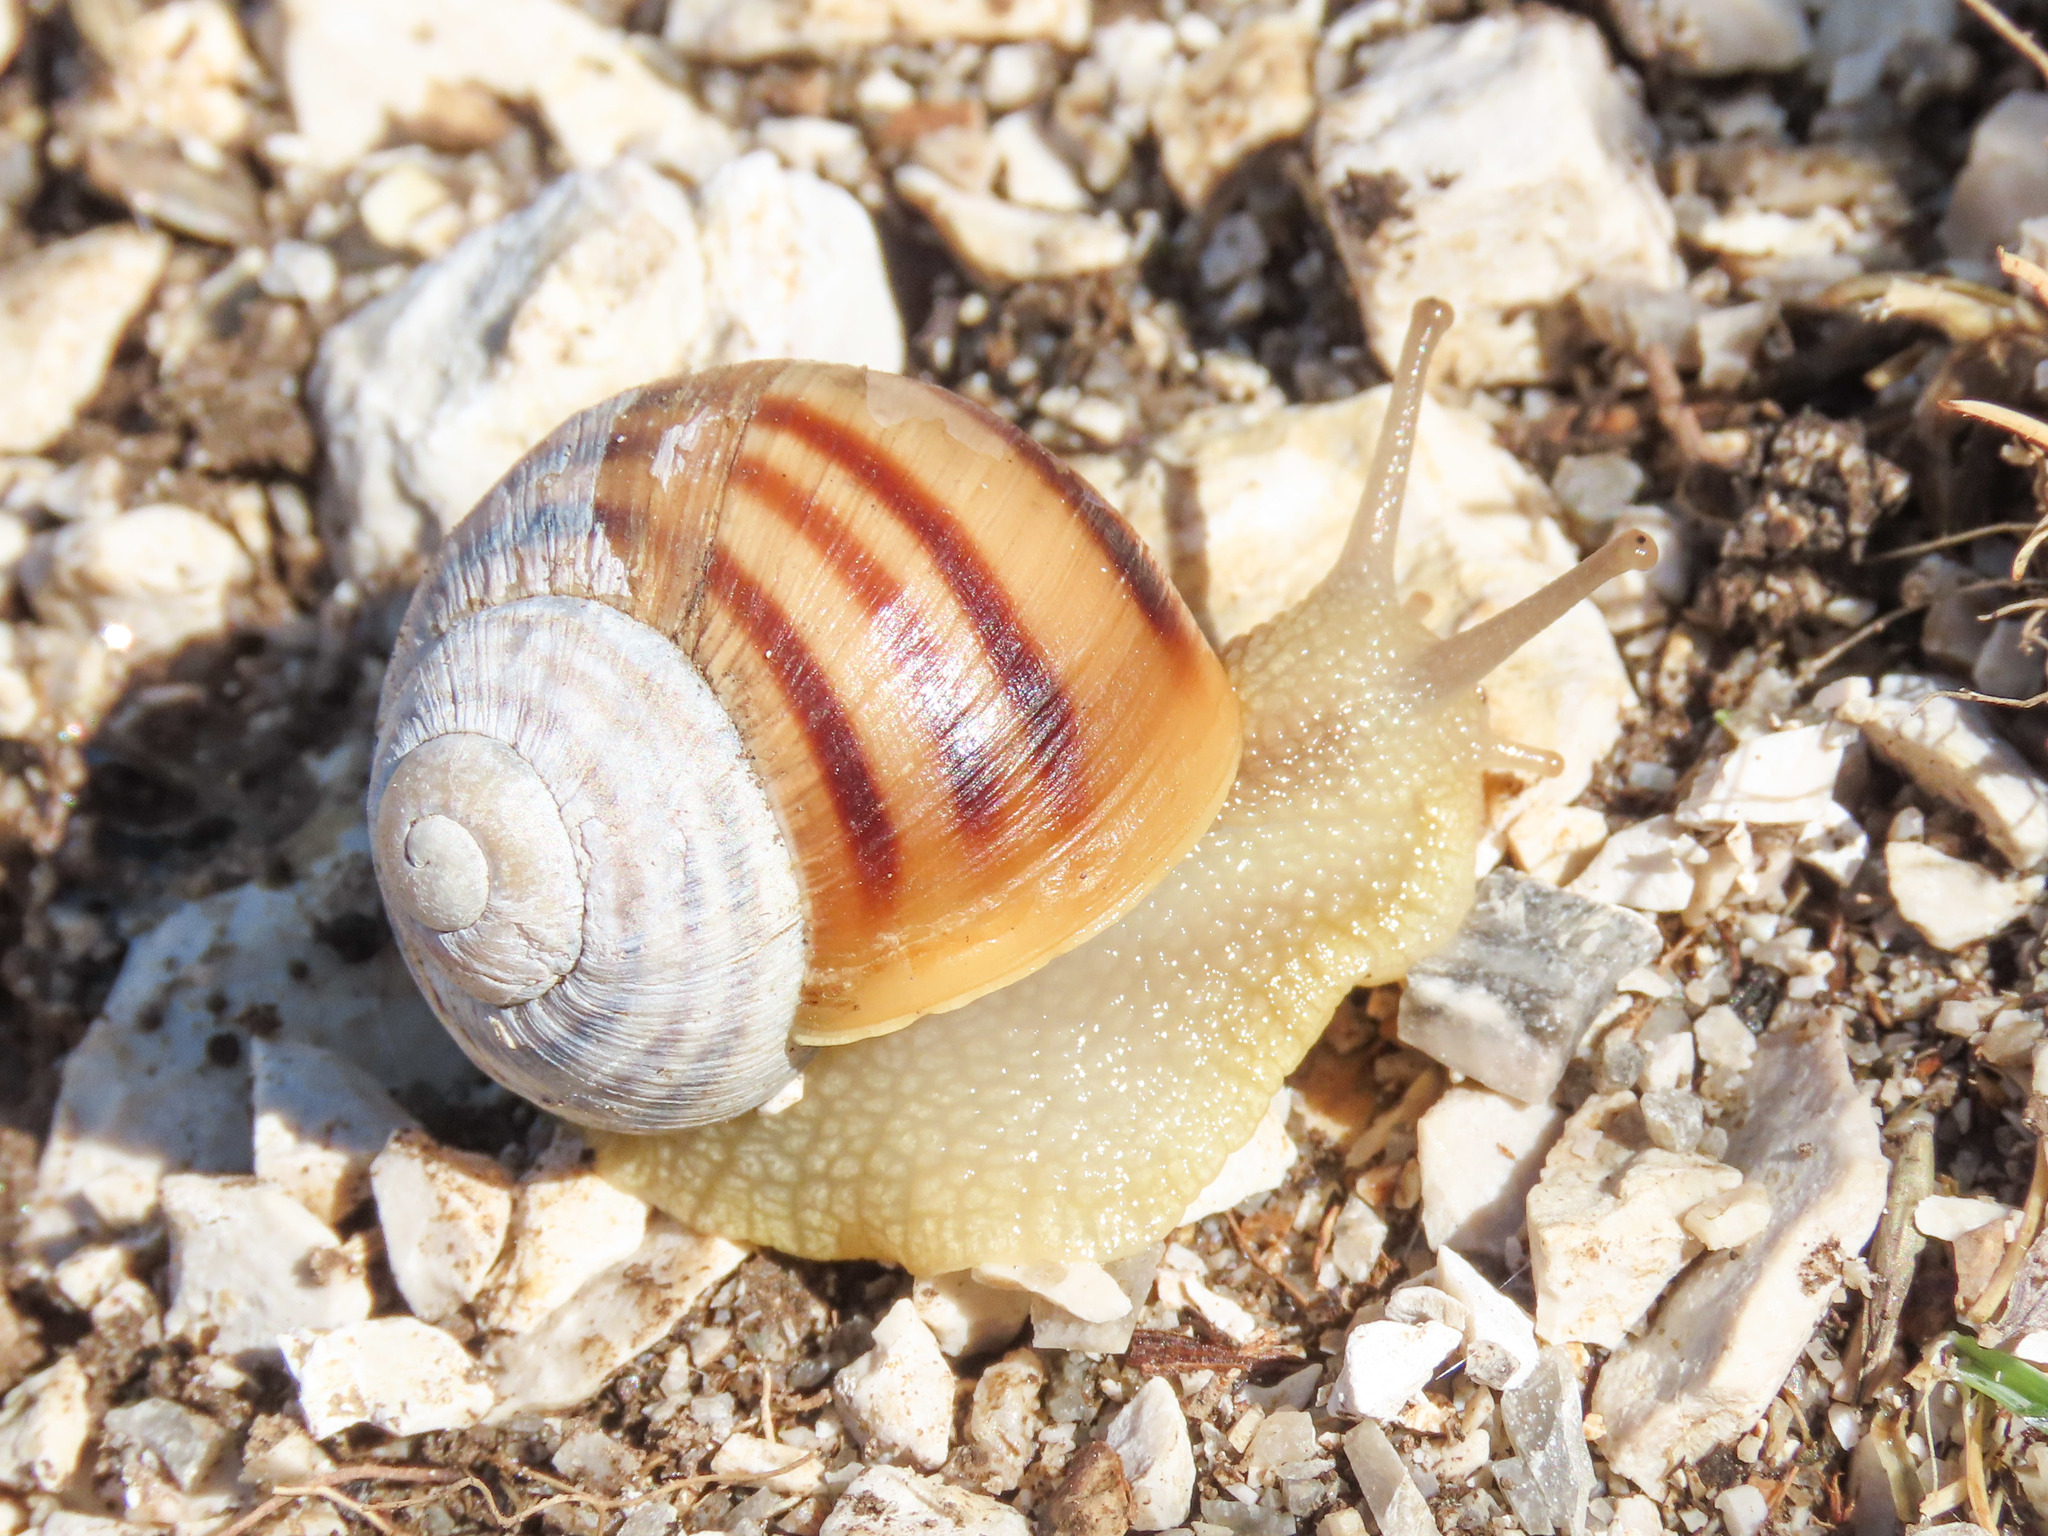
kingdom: Animalia
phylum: Mollusca
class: Gastropoda
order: Stylommatophora
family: Helicidae
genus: Helix
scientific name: Helix ligata
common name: Ligate snail
